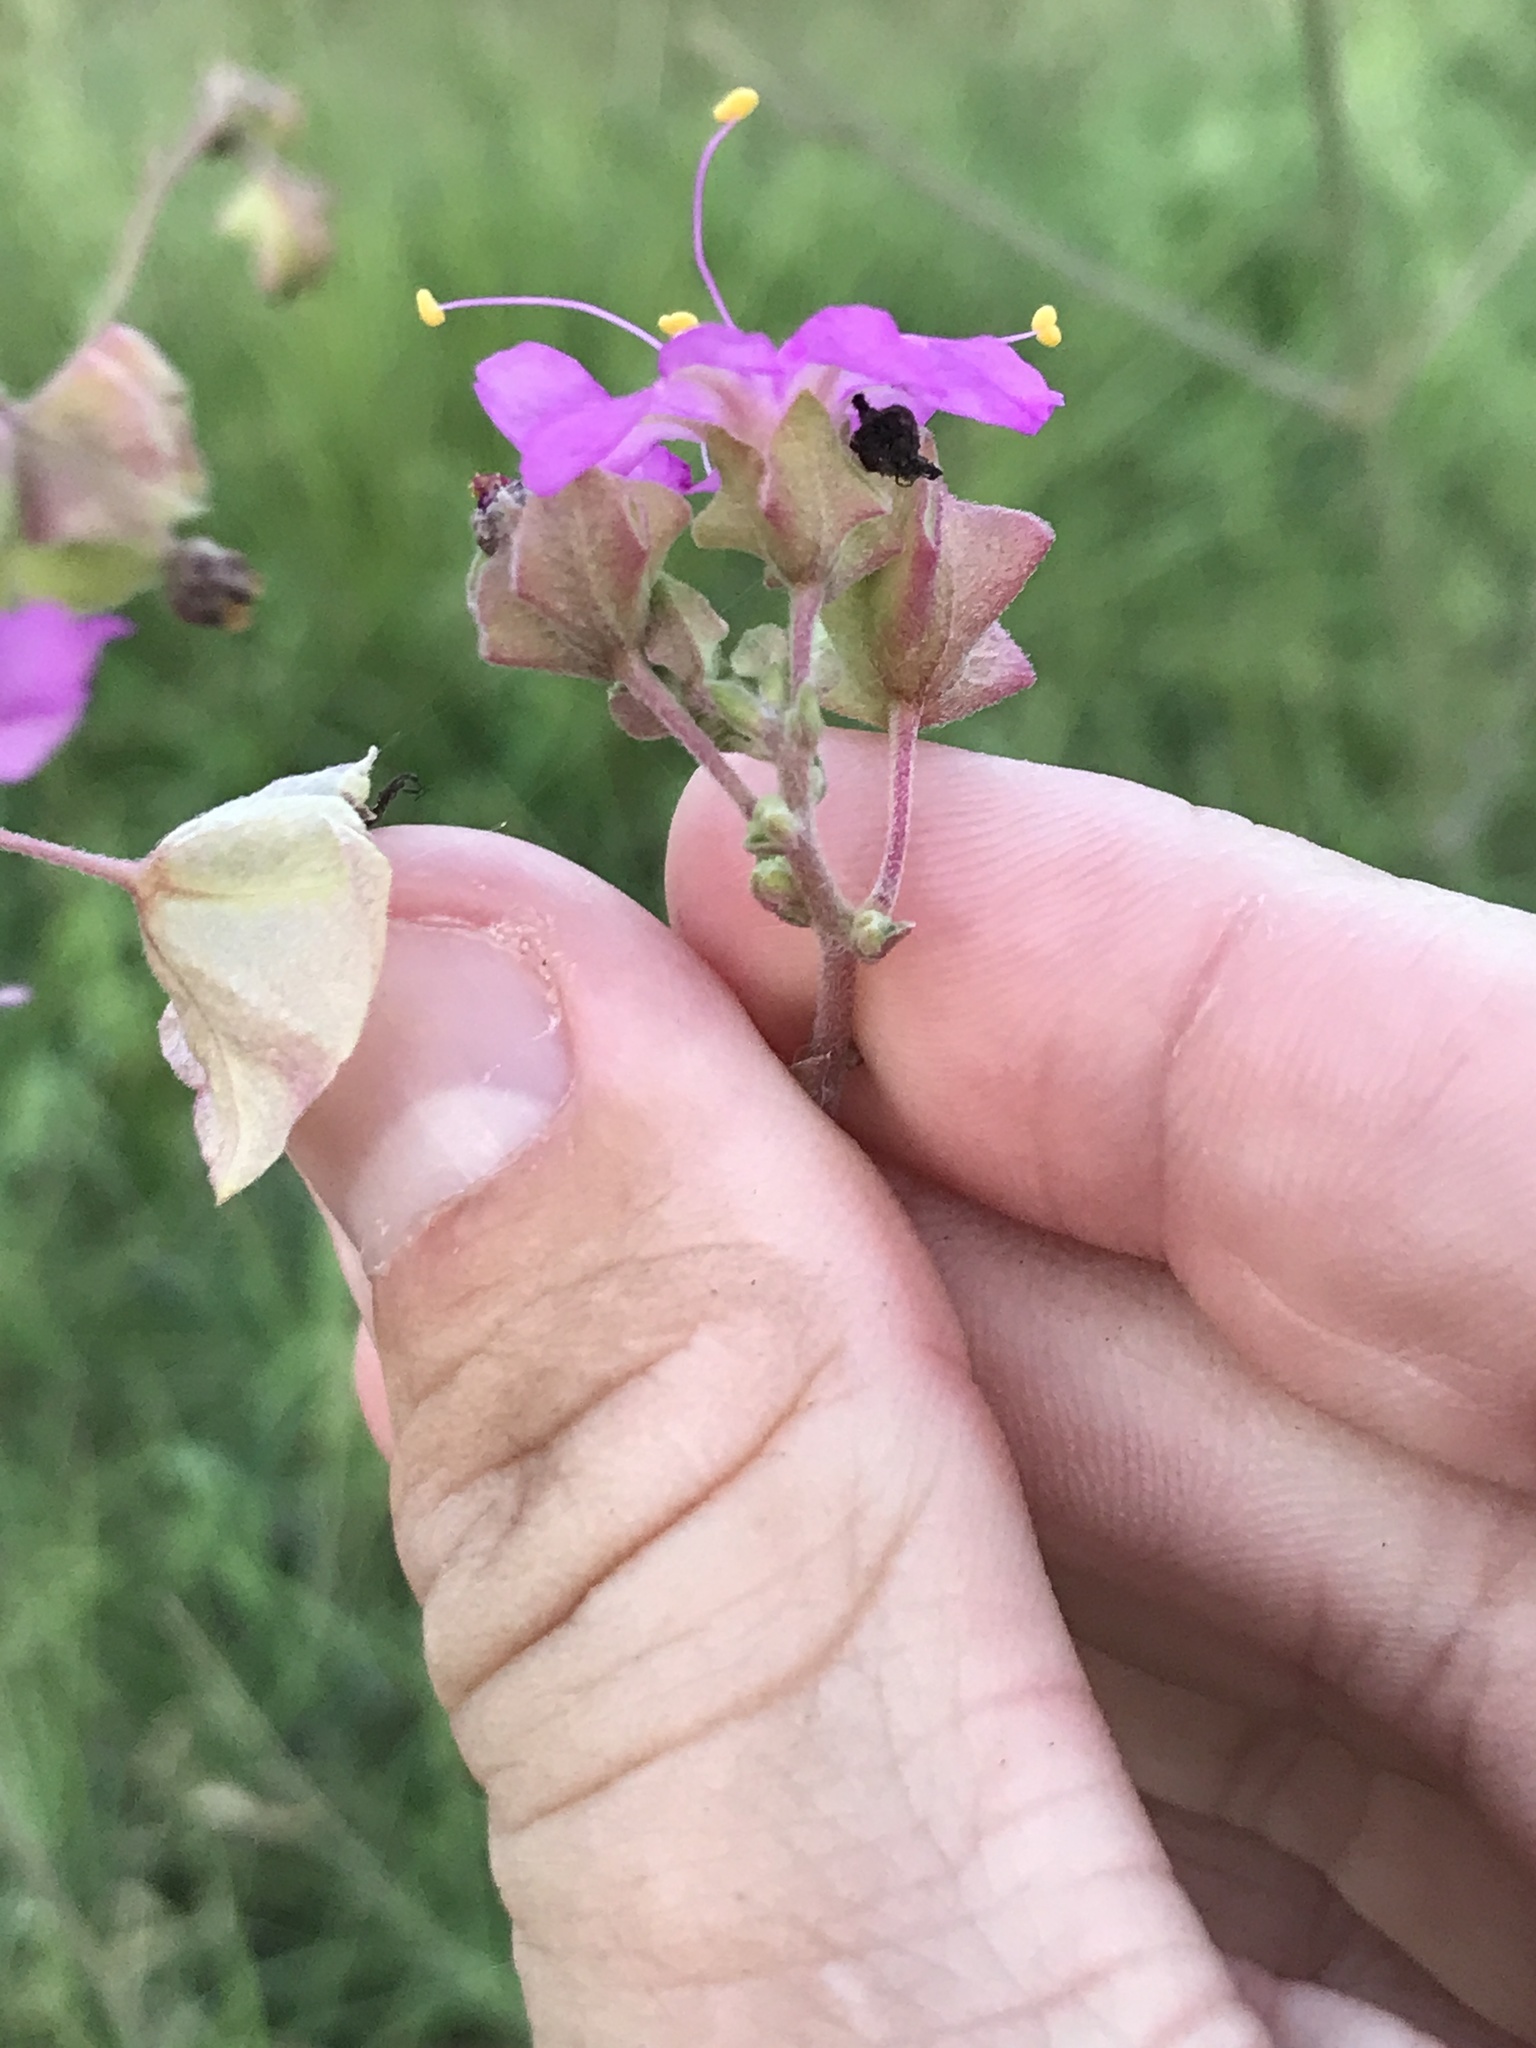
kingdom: Plantae
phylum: Tracheophyta
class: Magnoliopsida
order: Caryophyllales
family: Nyctaginaceae
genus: Mirabilis
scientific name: Mirabilis albida
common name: Hairy four-o'clock
